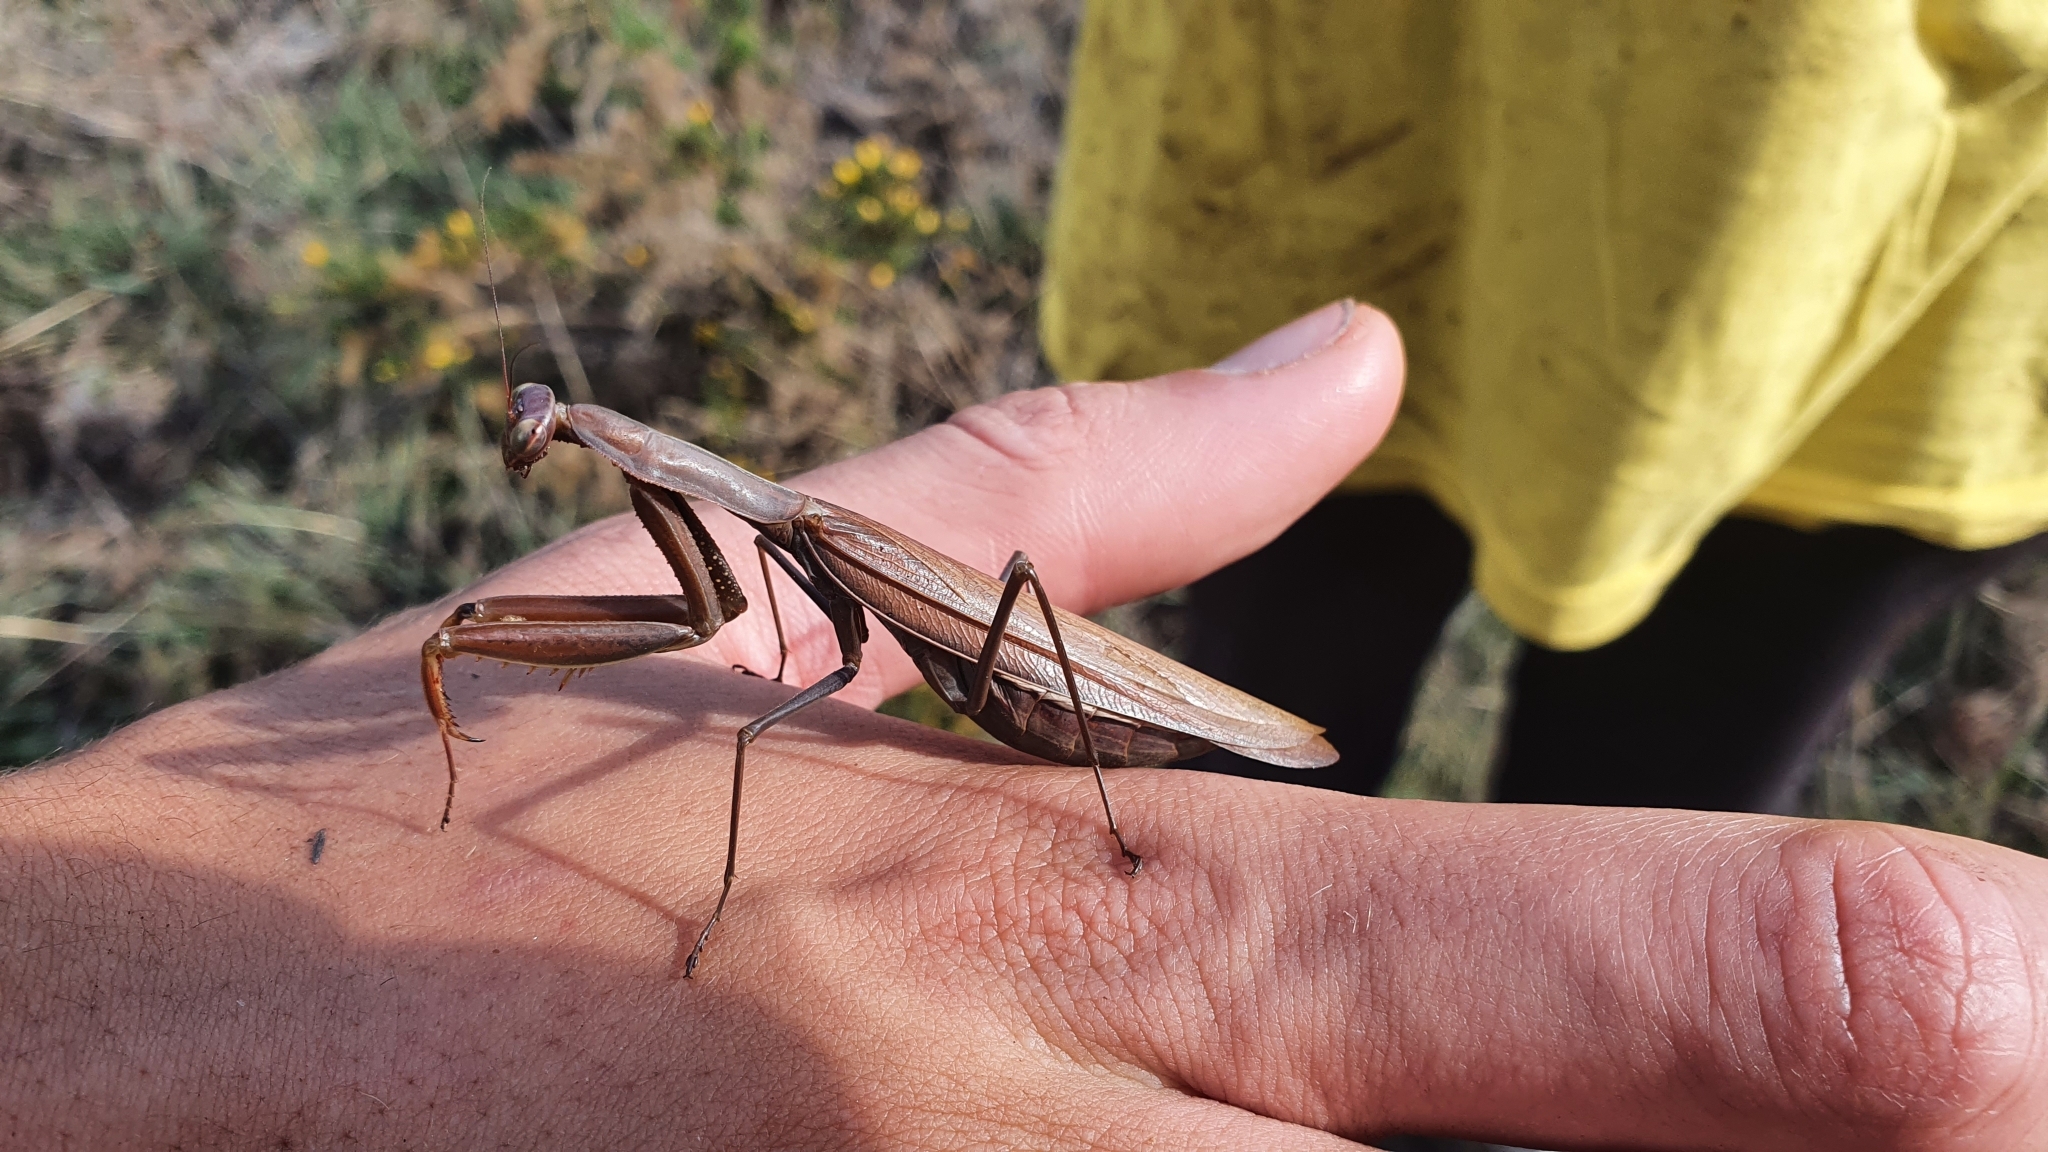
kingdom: Animalia
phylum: Arthropoda
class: Insecta
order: Mantodea
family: Mantidae
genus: Mantis
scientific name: Mantis religiosa
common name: Praying mantis
